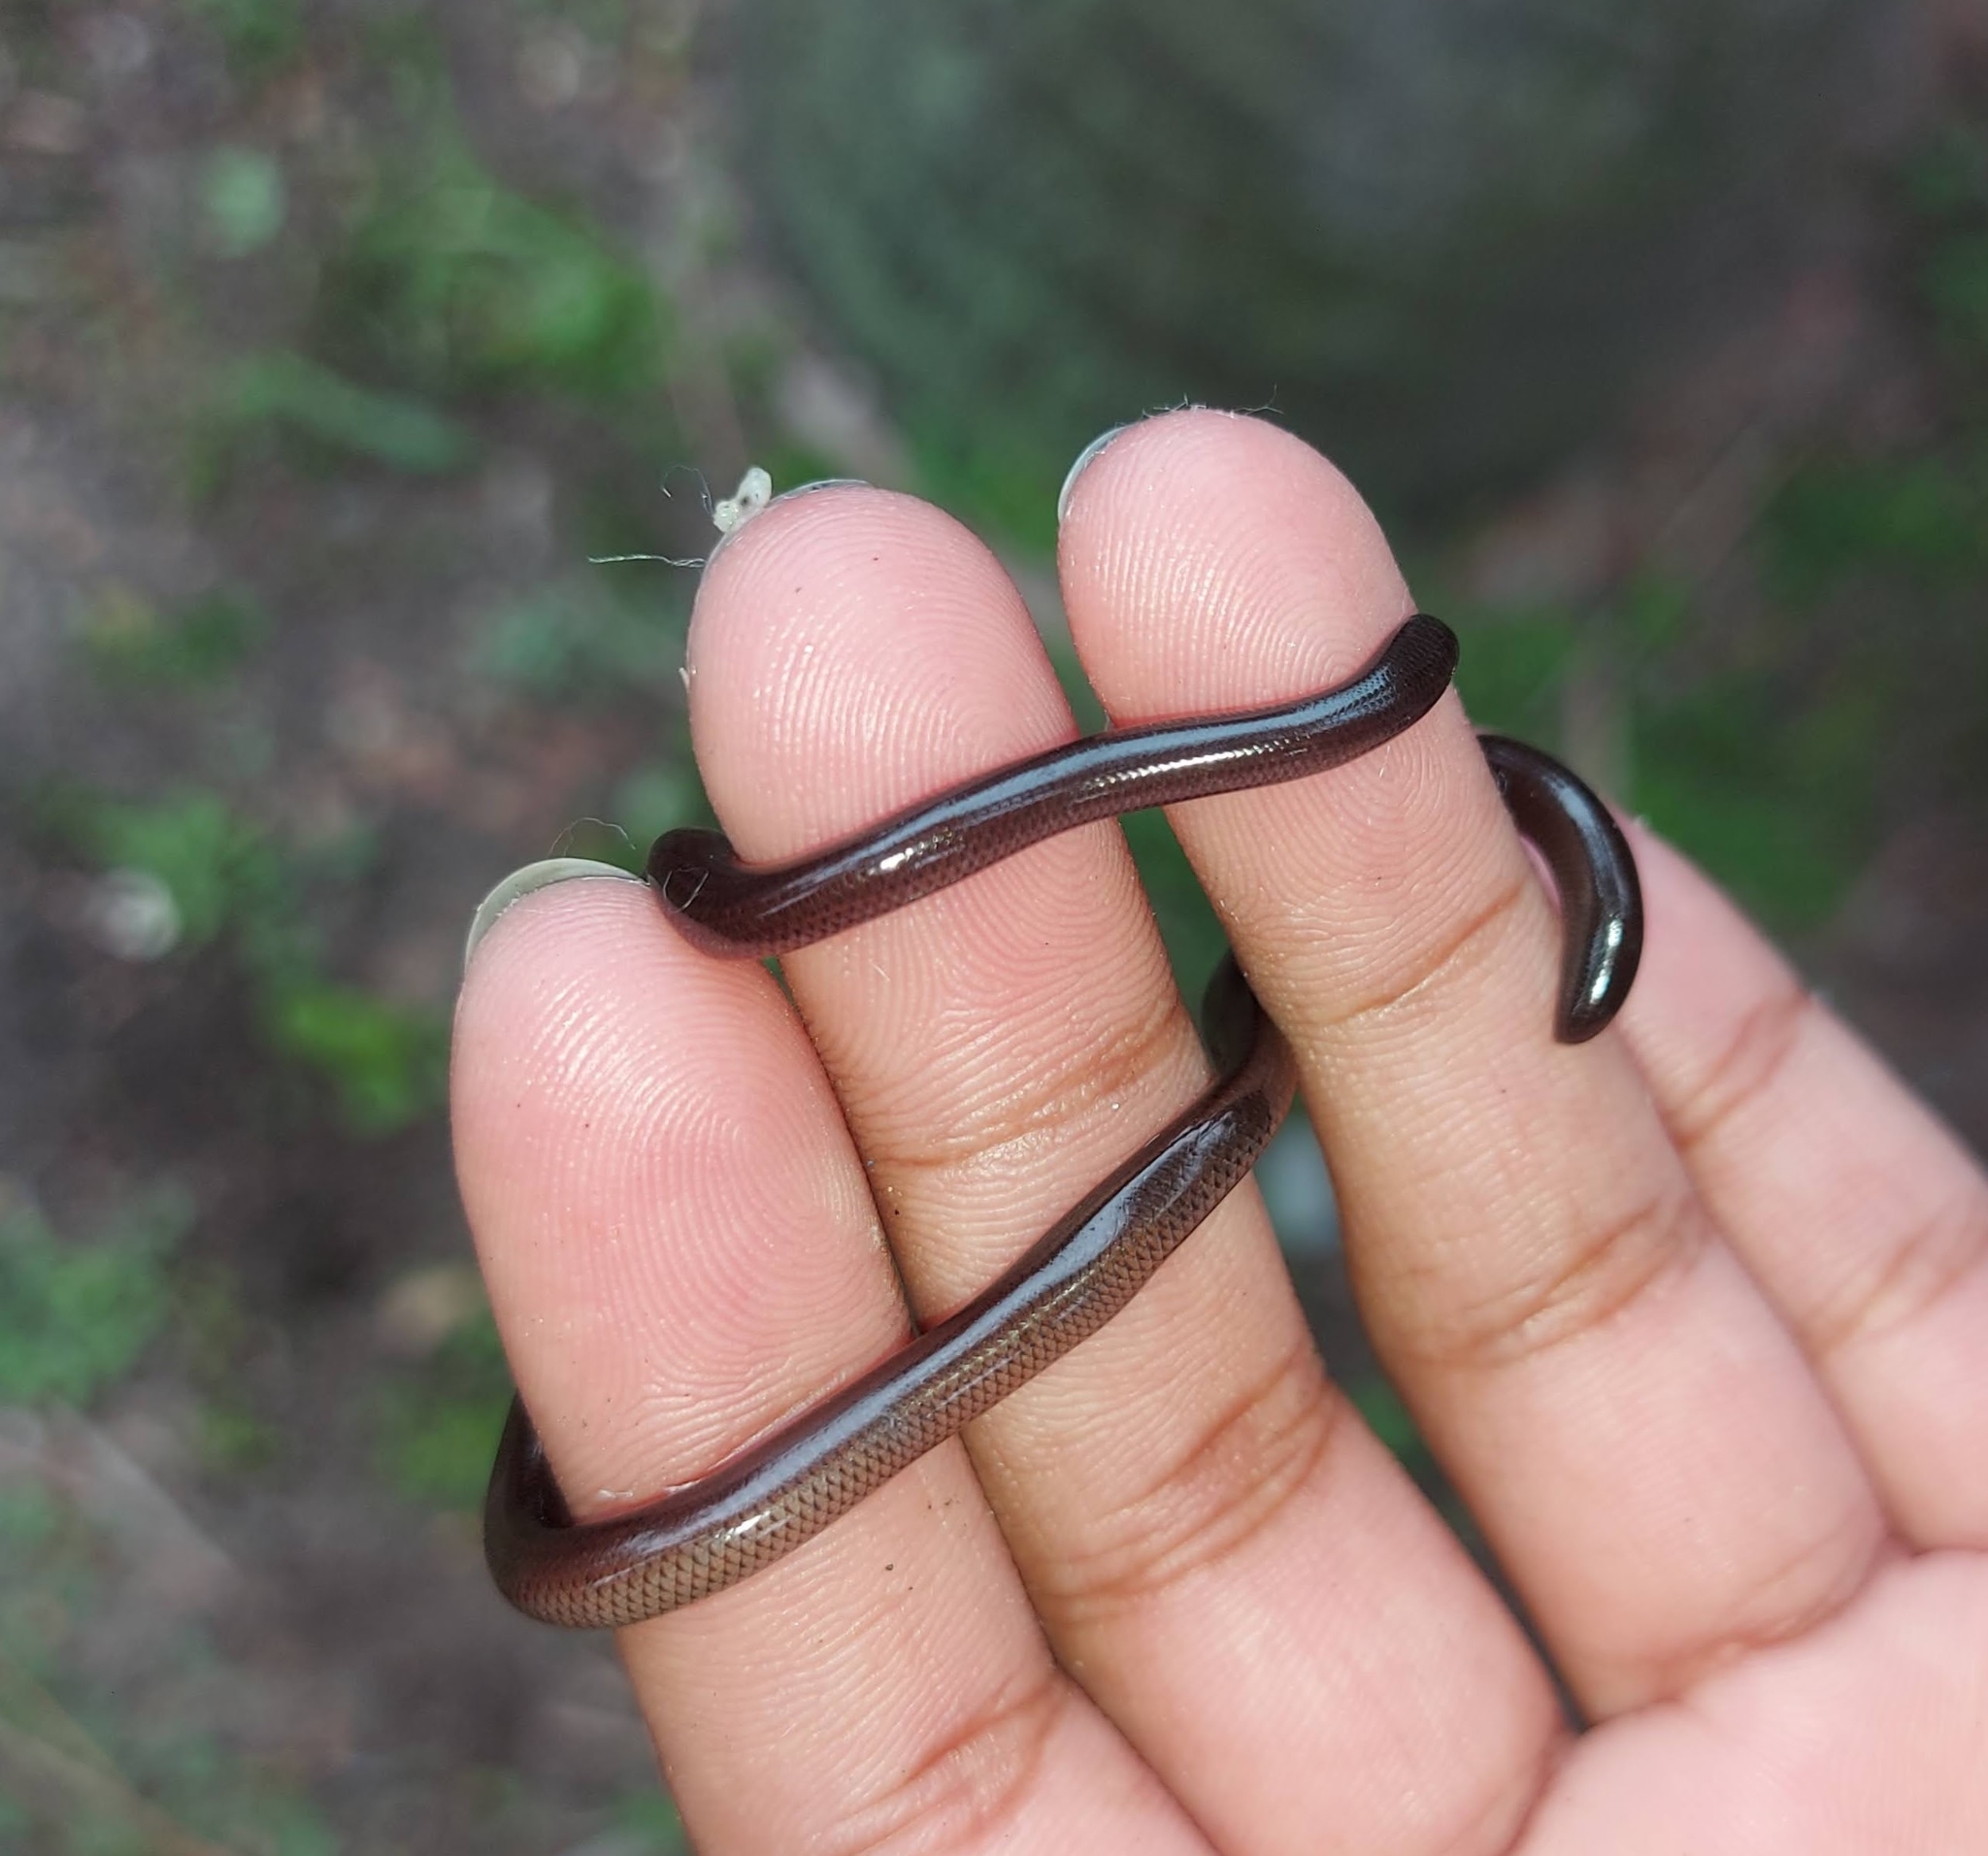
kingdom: Animalia
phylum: Chordata
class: Squamata
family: Typhlopidae
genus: Indotyphlops
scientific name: Indotyphlops braminus
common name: Brahminy blindsnake
